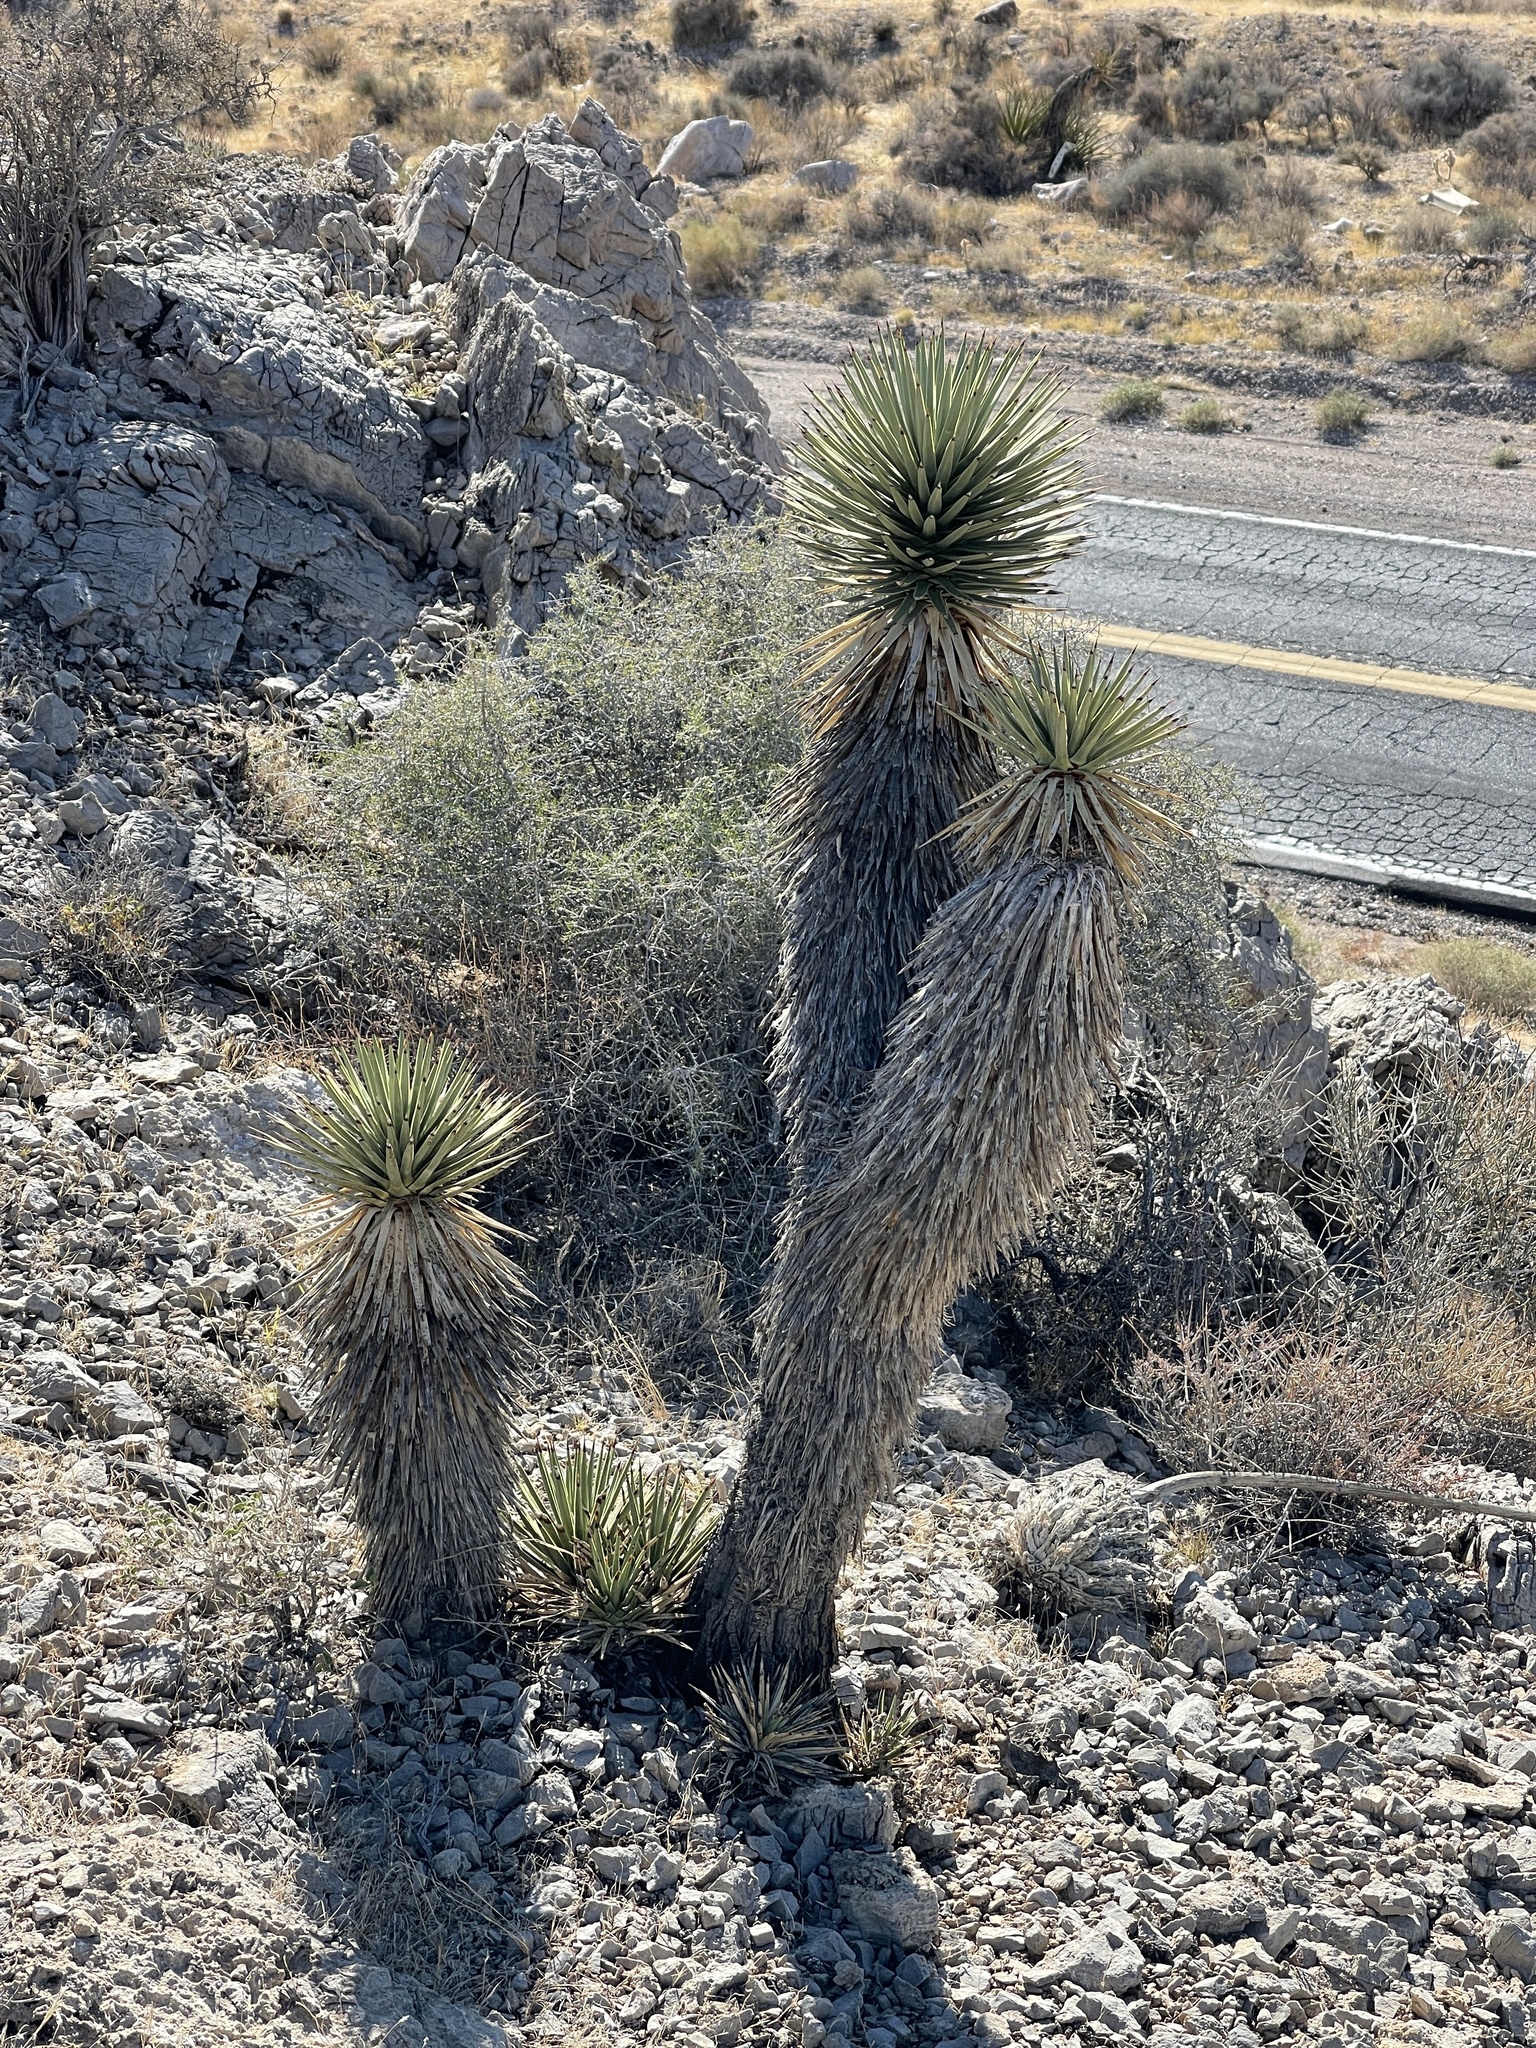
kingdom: Plantae
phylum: Tracheophyta
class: Liliopsida
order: Asparagales
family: Asparagaceae
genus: Yucca
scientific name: Yucca brevifolia
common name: Joshua tree
